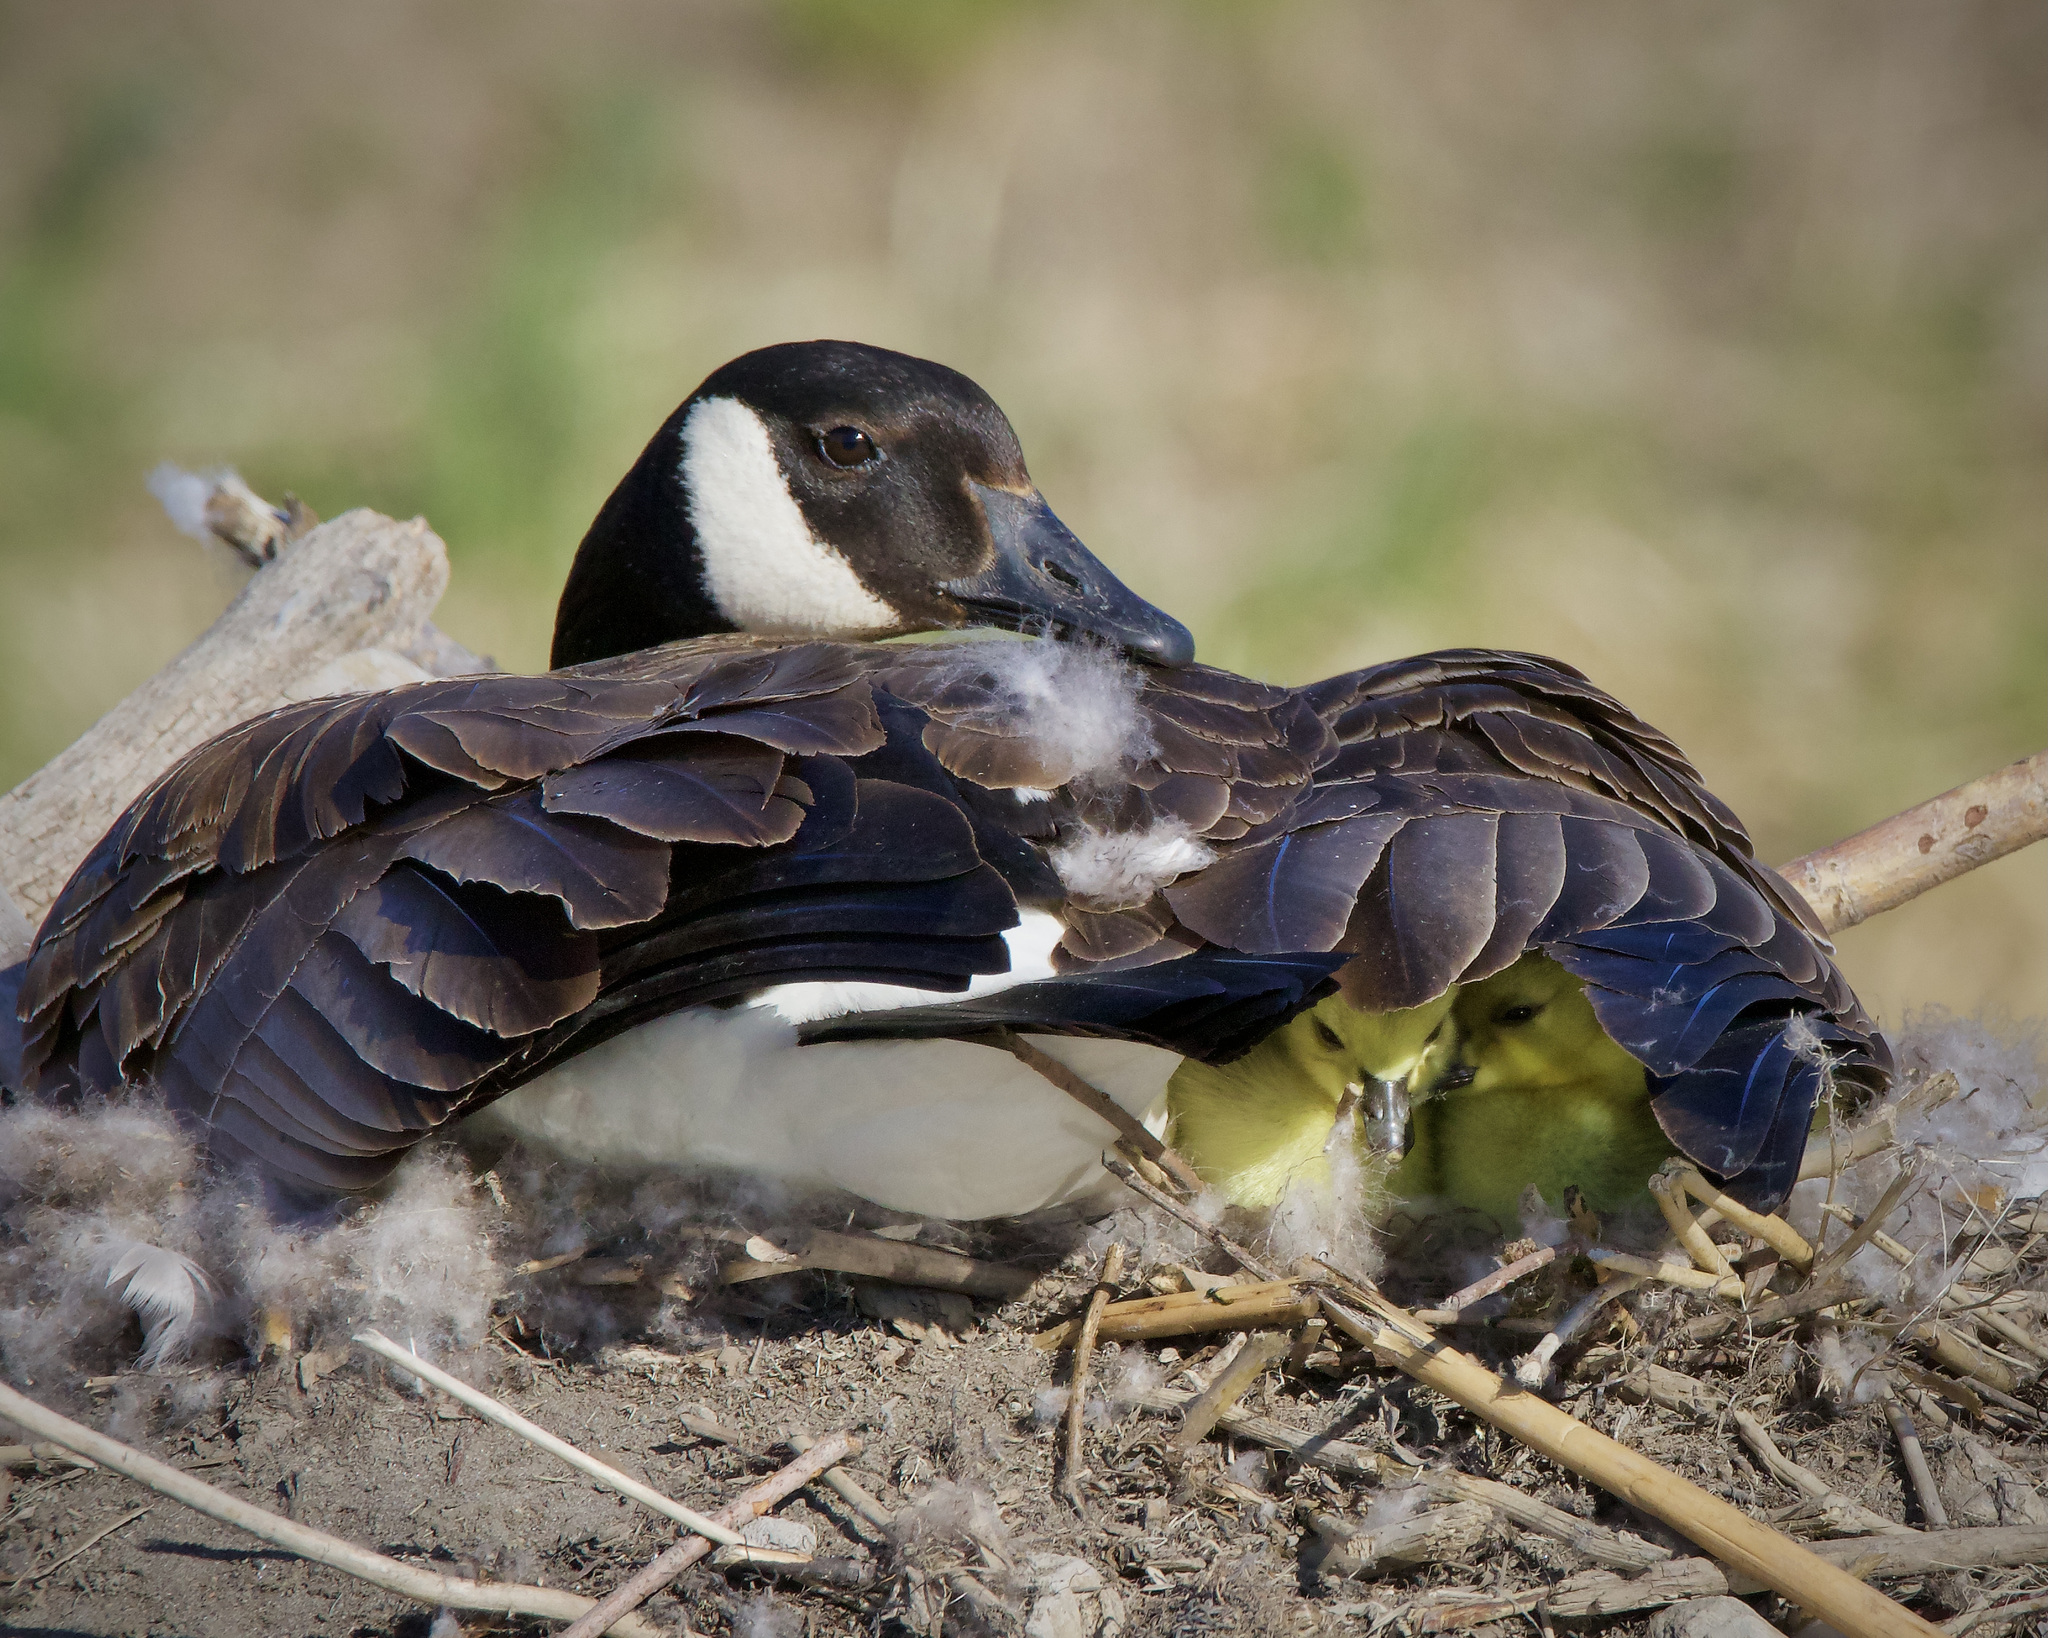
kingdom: Animalia
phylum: Chordata
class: Aves
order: Anseriformes
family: Anatidae
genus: Branta
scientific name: Branta canadensis
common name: Canada goose
